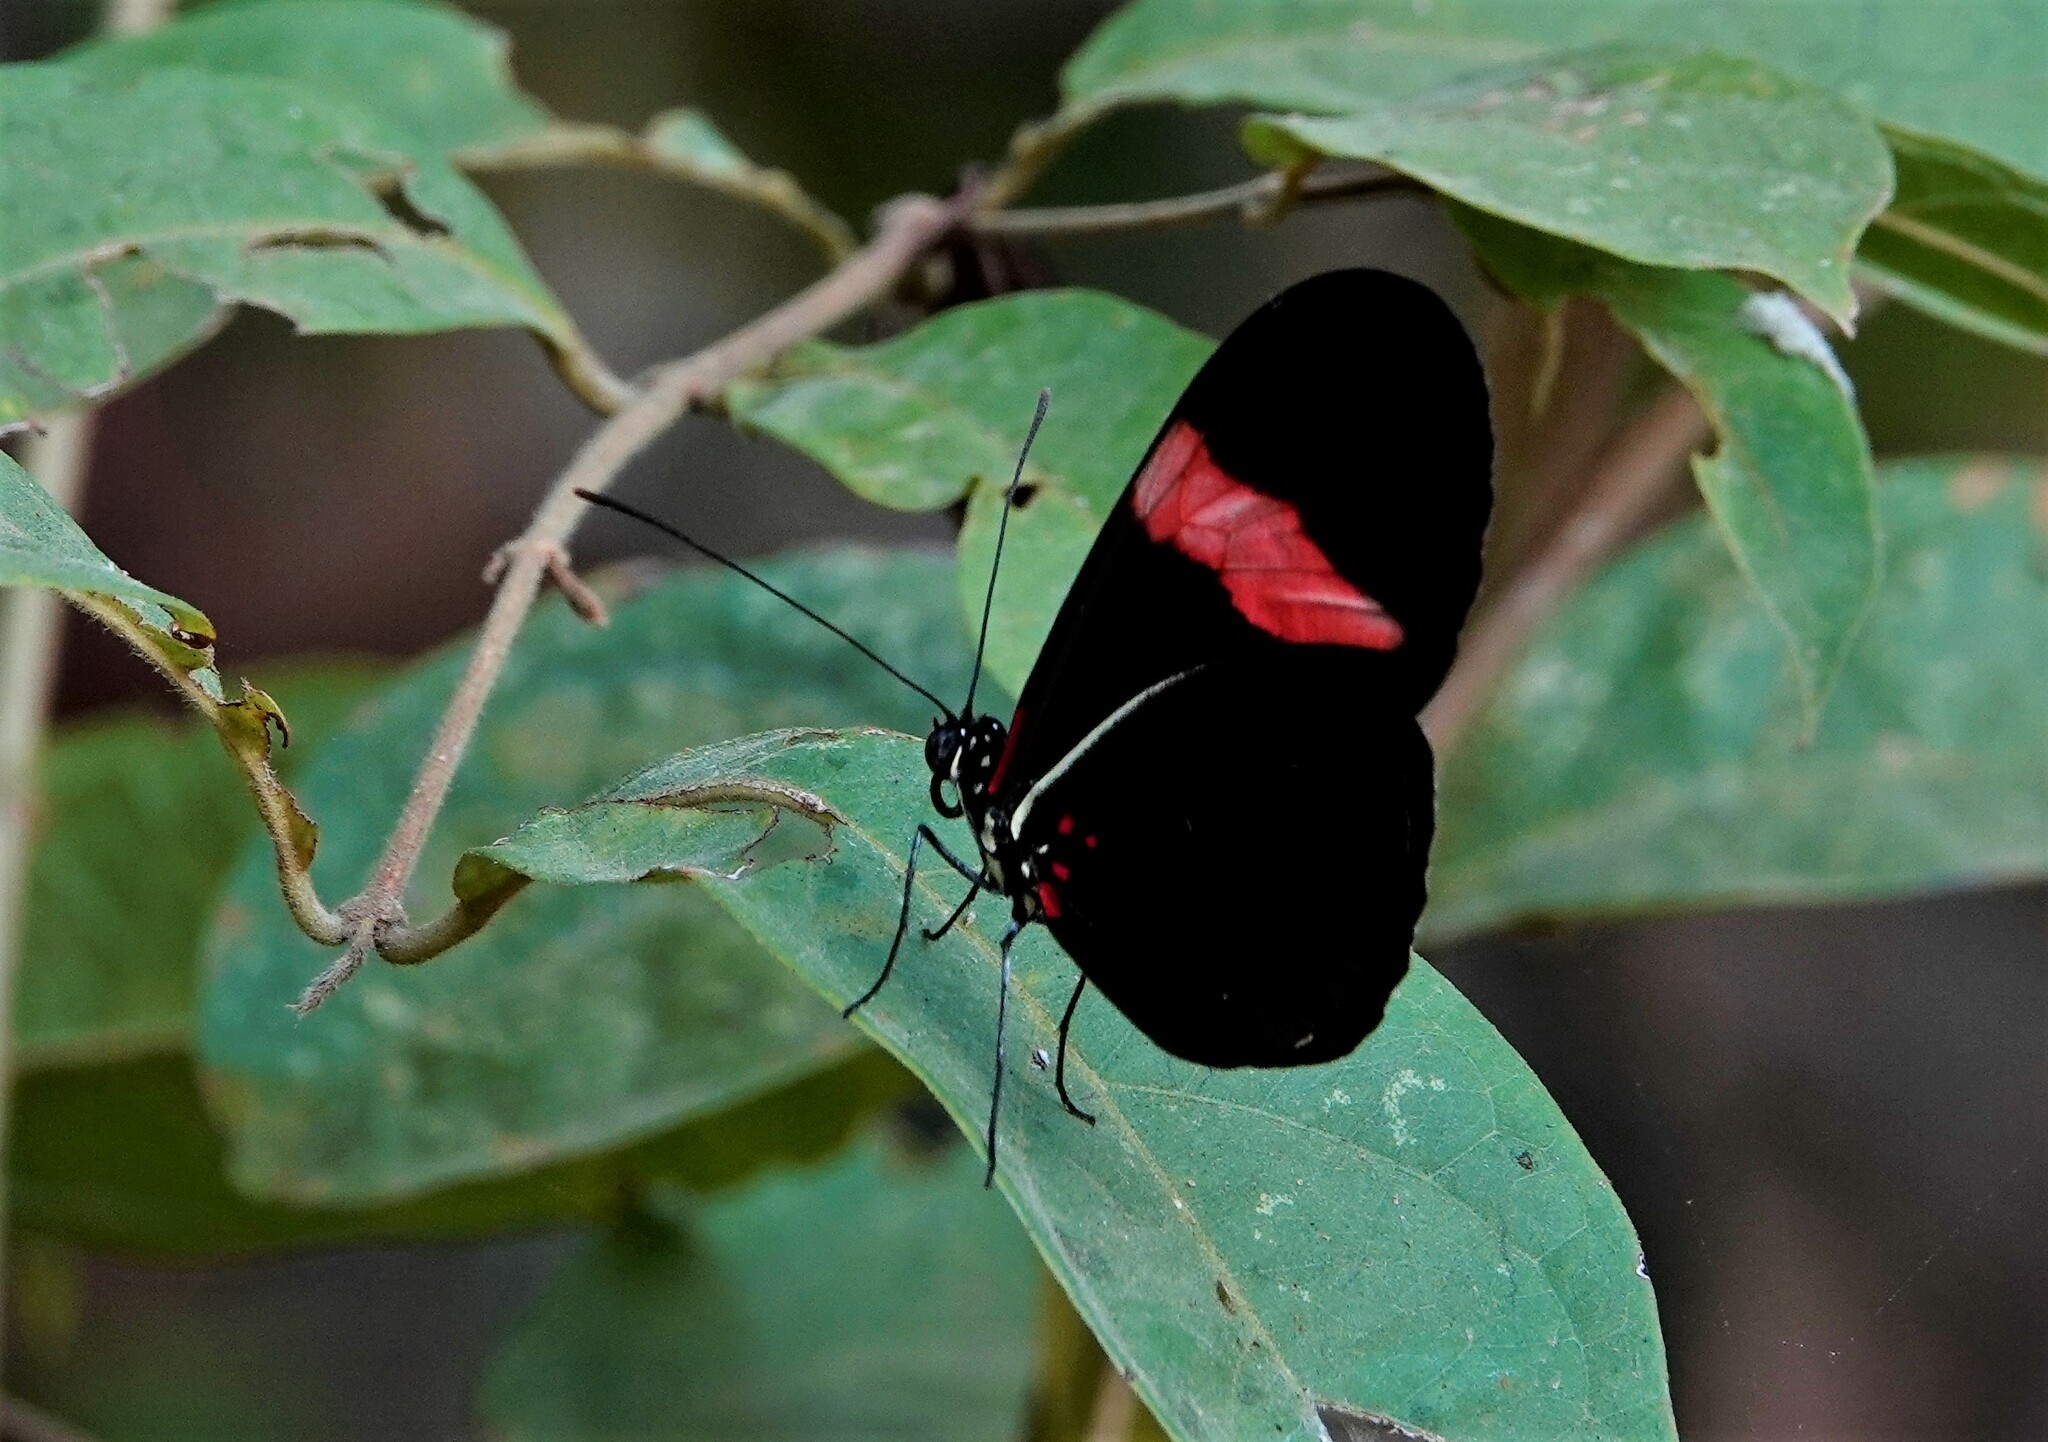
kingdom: Animalia
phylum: Arthropoda
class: Insecta
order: Lepidoptera
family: Nymphalidae
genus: Heliconius
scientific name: Heliconius erato
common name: Common patch longwing
